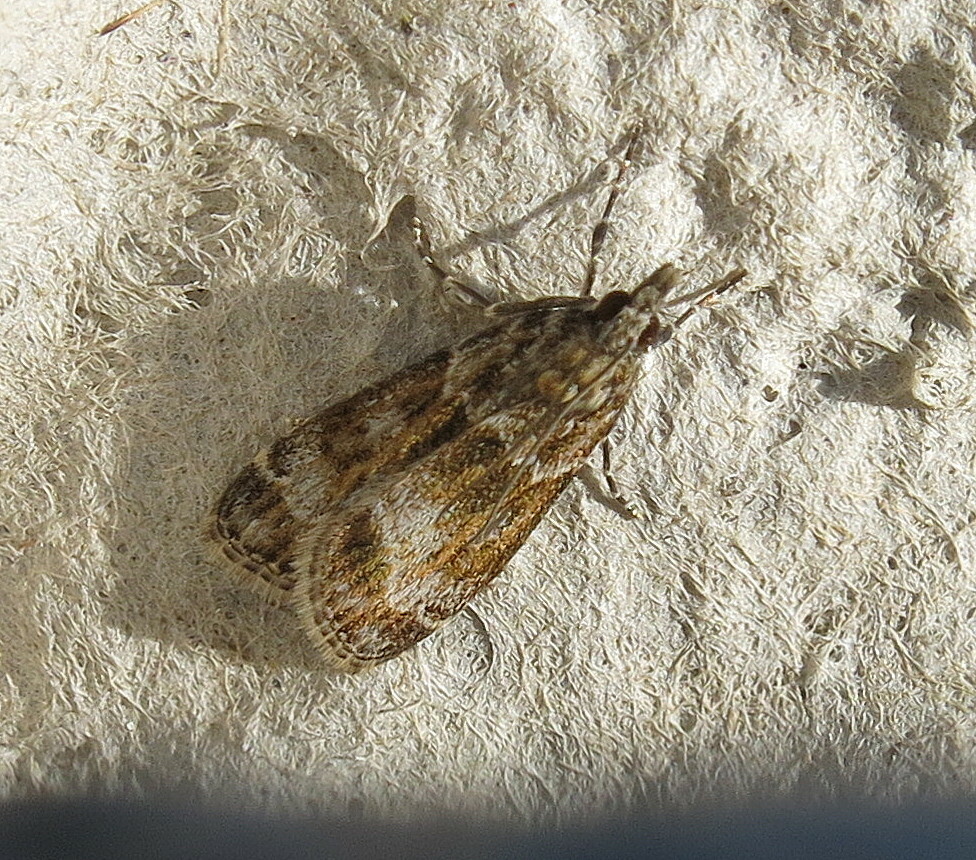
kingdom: Animalia
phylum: Arthropoda
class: Insecta
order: Lepidoptera
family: Crambidae
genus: Eudonia
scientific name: Eudonia mercurella
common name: Small grey
